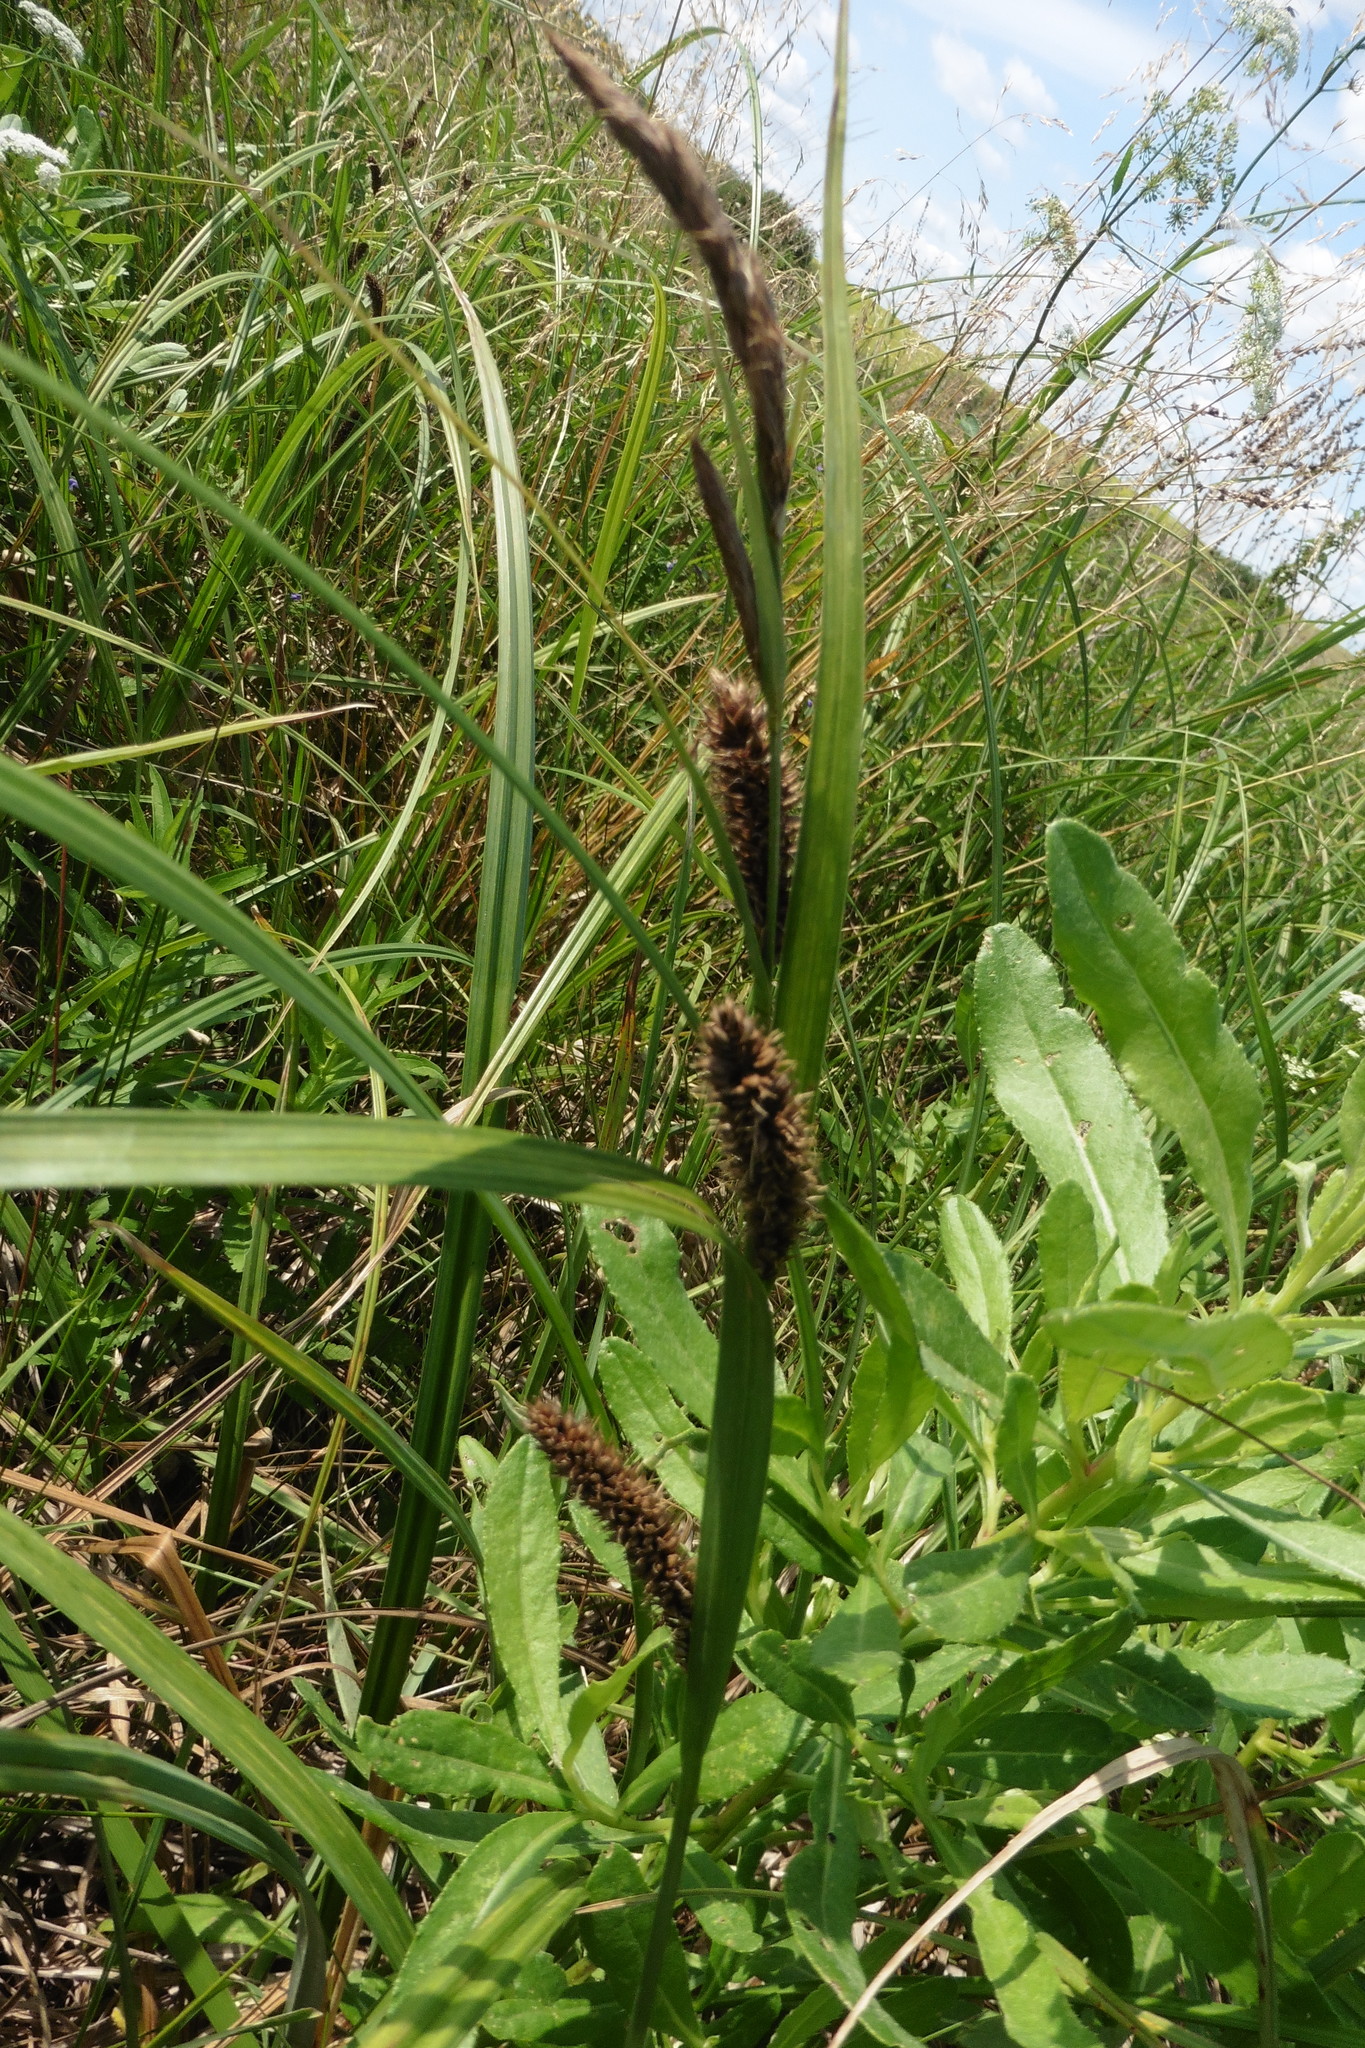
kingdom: Plantae
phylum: Tracheophyta
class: Liliopsida
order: Poales
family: Cyperaceae
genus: Carex
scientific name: Carex acuta
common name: Slender tufted-sedge
